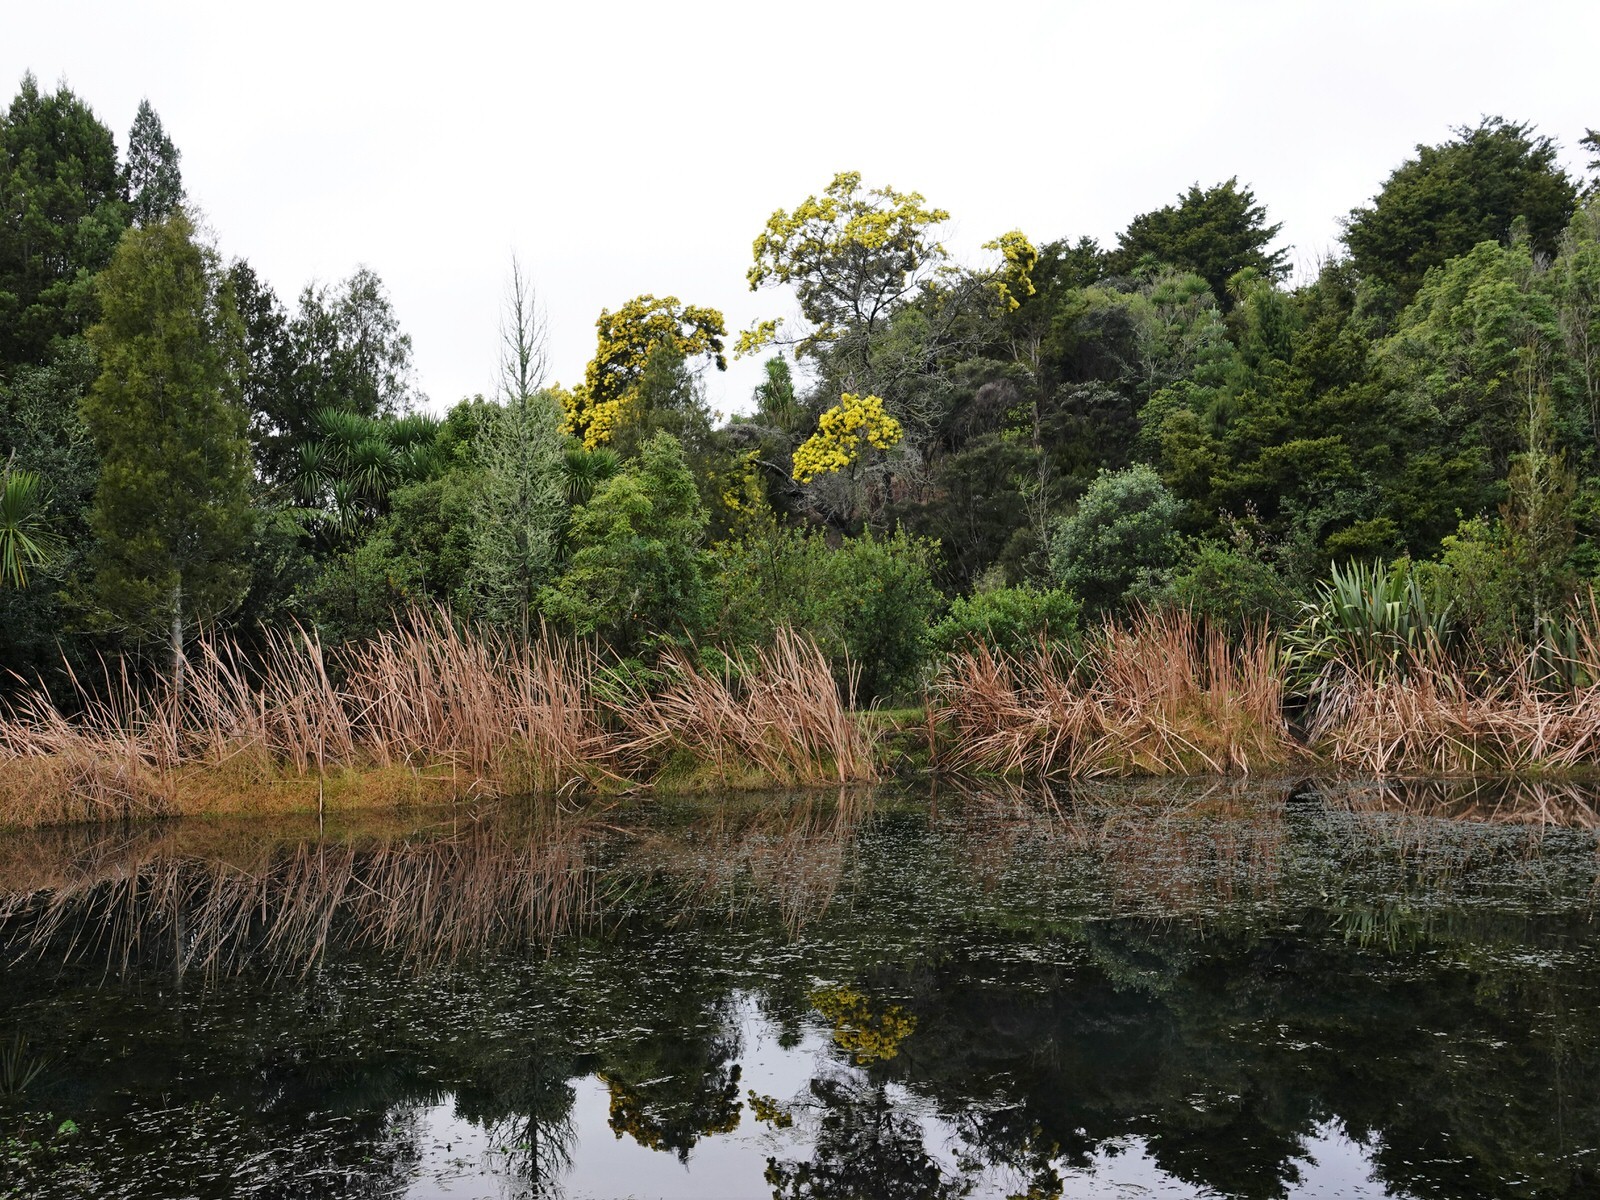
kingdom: Plantae
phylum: Tracheophyta
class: Magnoliopsida
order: Fabales
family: Fabaceae
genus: Acacia
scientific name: Acacia decurrens
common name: Green wattle
